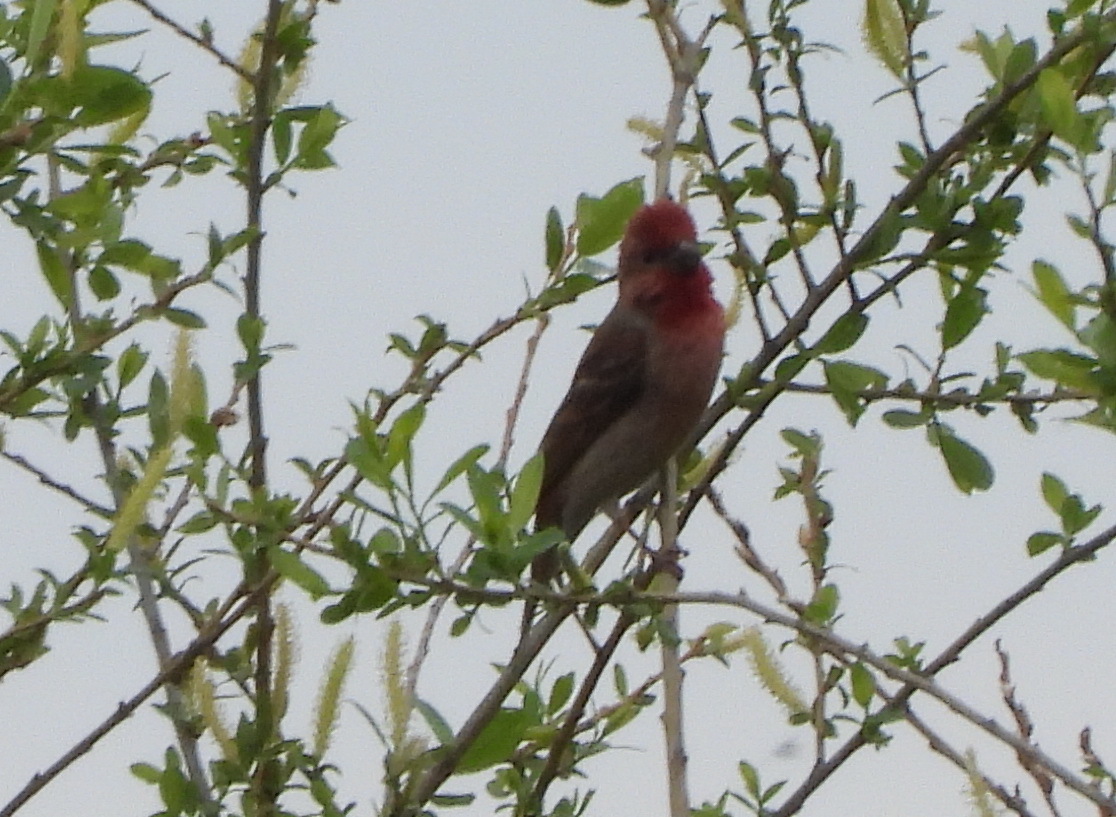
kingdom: Animalia
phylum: Chordata
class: Aves
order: Passeriformes
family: Fringillidae
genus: Carpodacus
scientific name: Carpodacus erythrinus
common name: Common rosefinch
